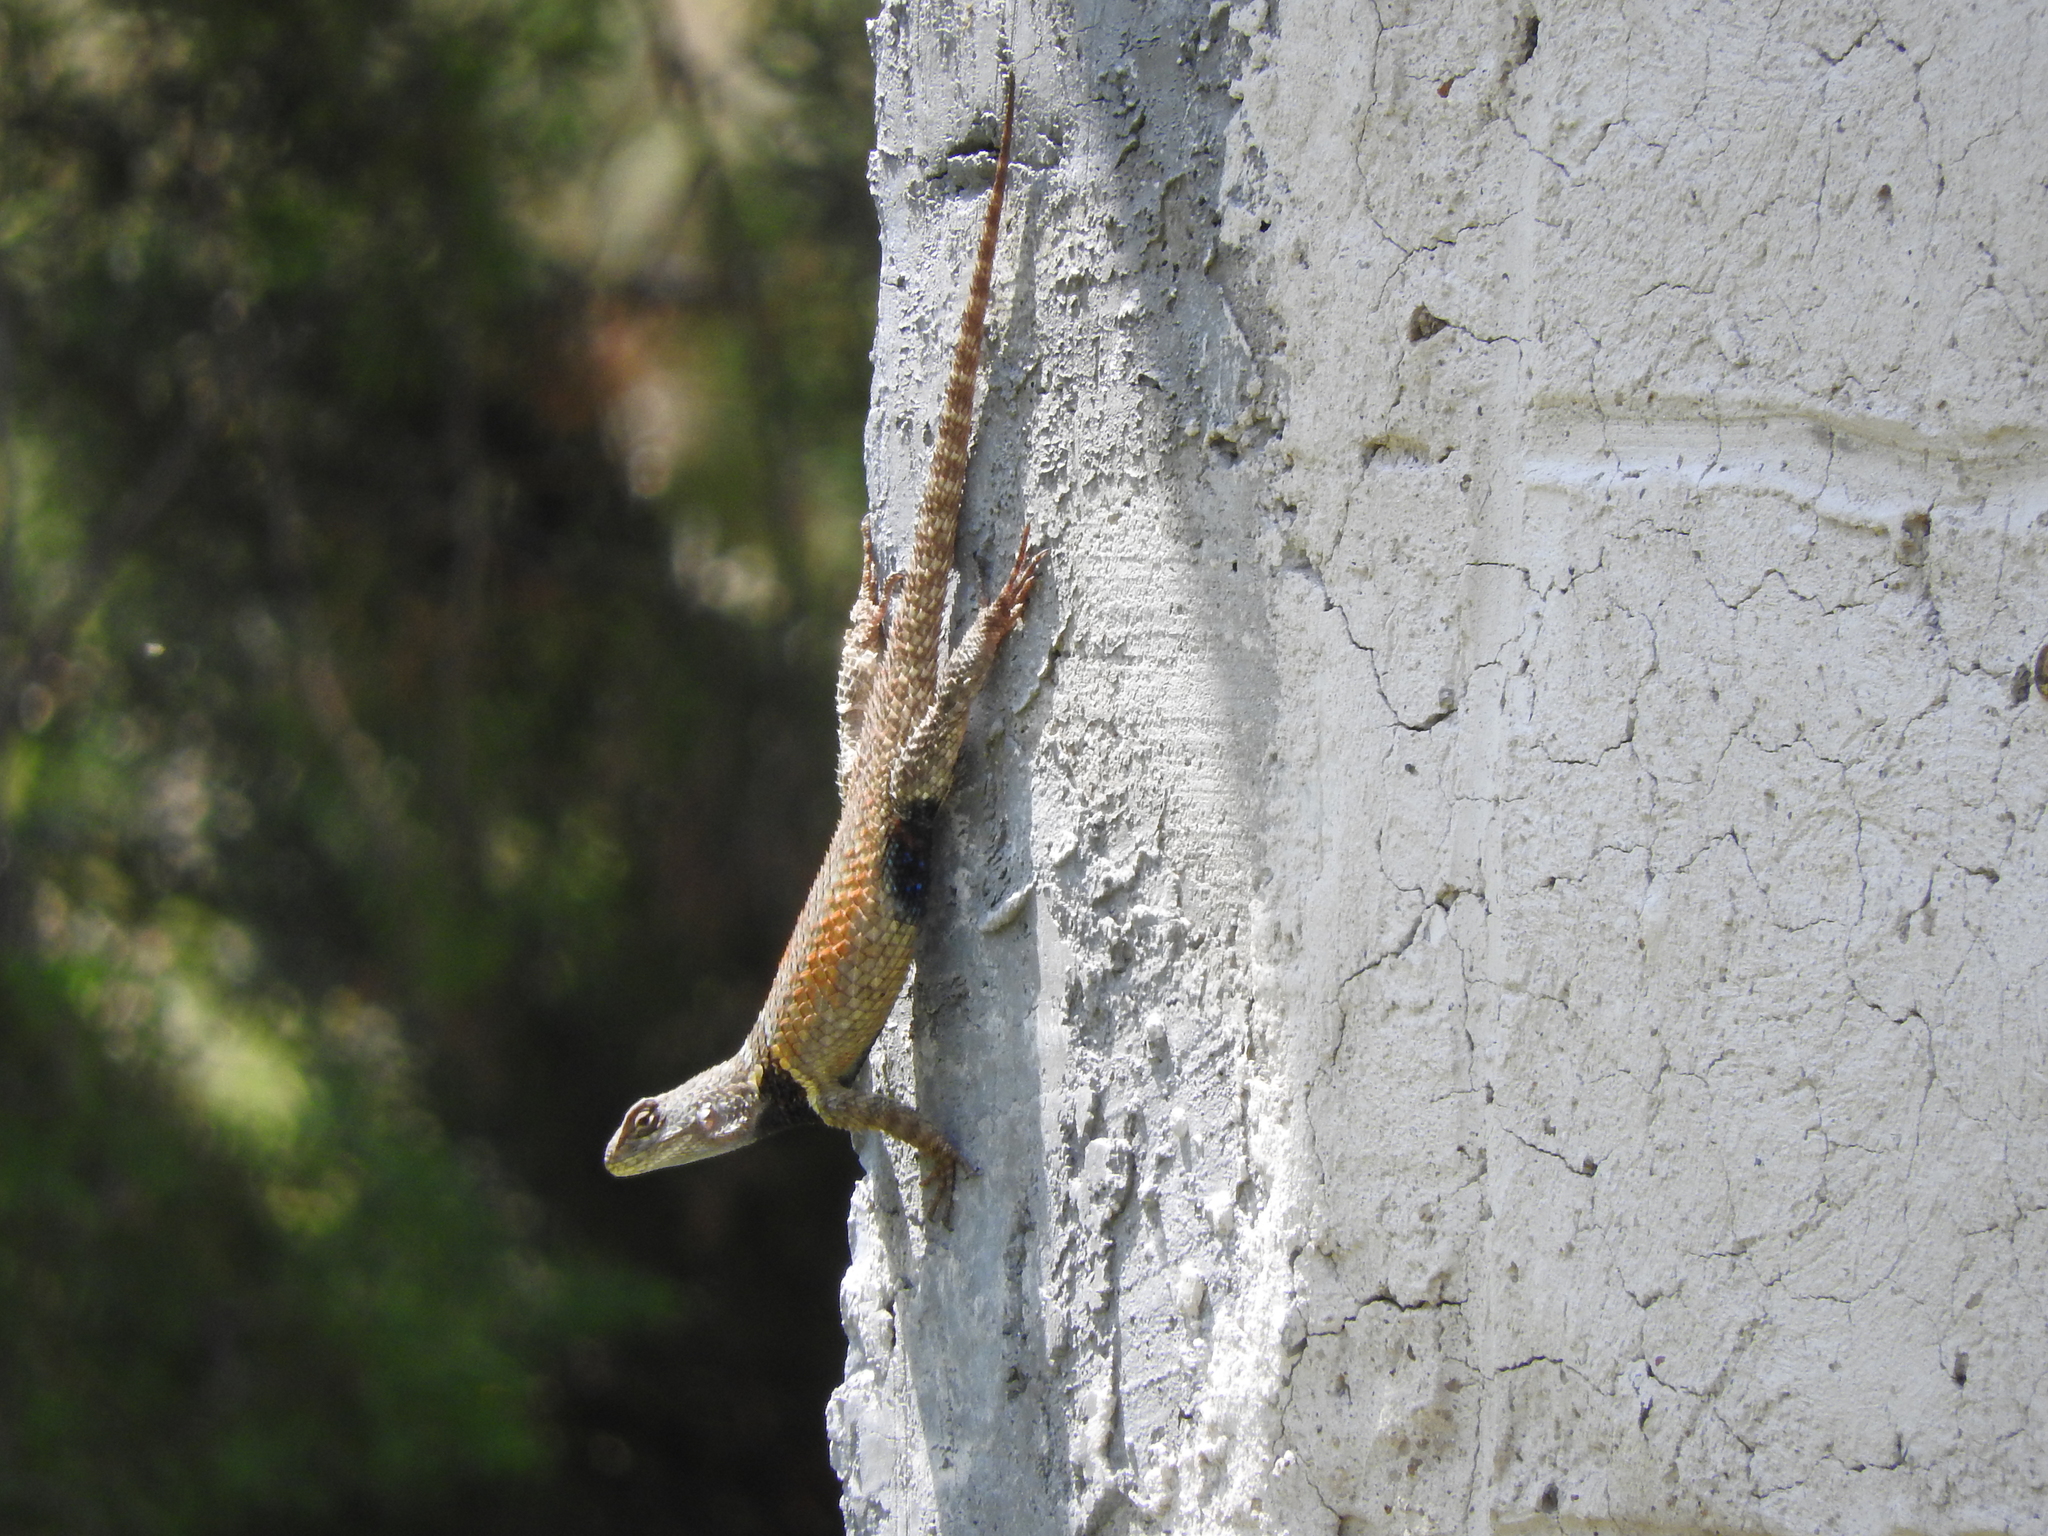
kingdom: Animalia
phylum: Chordata
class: Squamata
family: Phrynosomatidae
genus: Sceloporus
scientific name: Sceloporus torquatus
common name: Central plateau torquate lizard [melanogaster]
